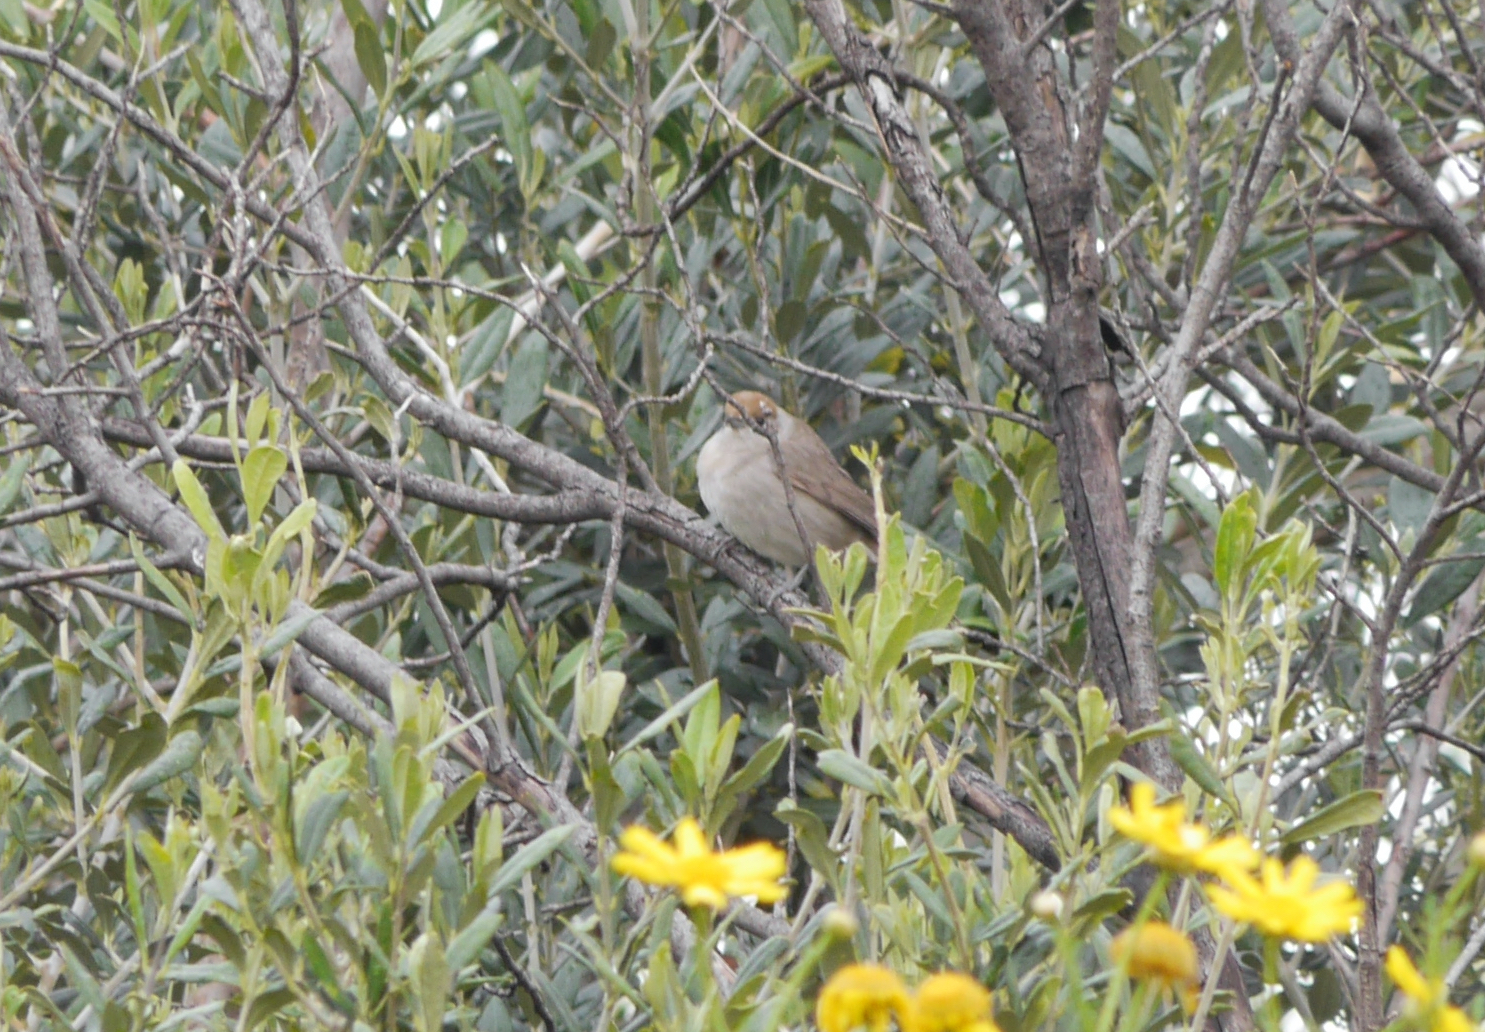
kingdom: Animalia
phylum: Chordata
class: Aves
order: Passeriformes
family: Sylviidae
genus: Sylvia
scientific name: Sylvia atricapilla
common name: Eurasian blackcap
